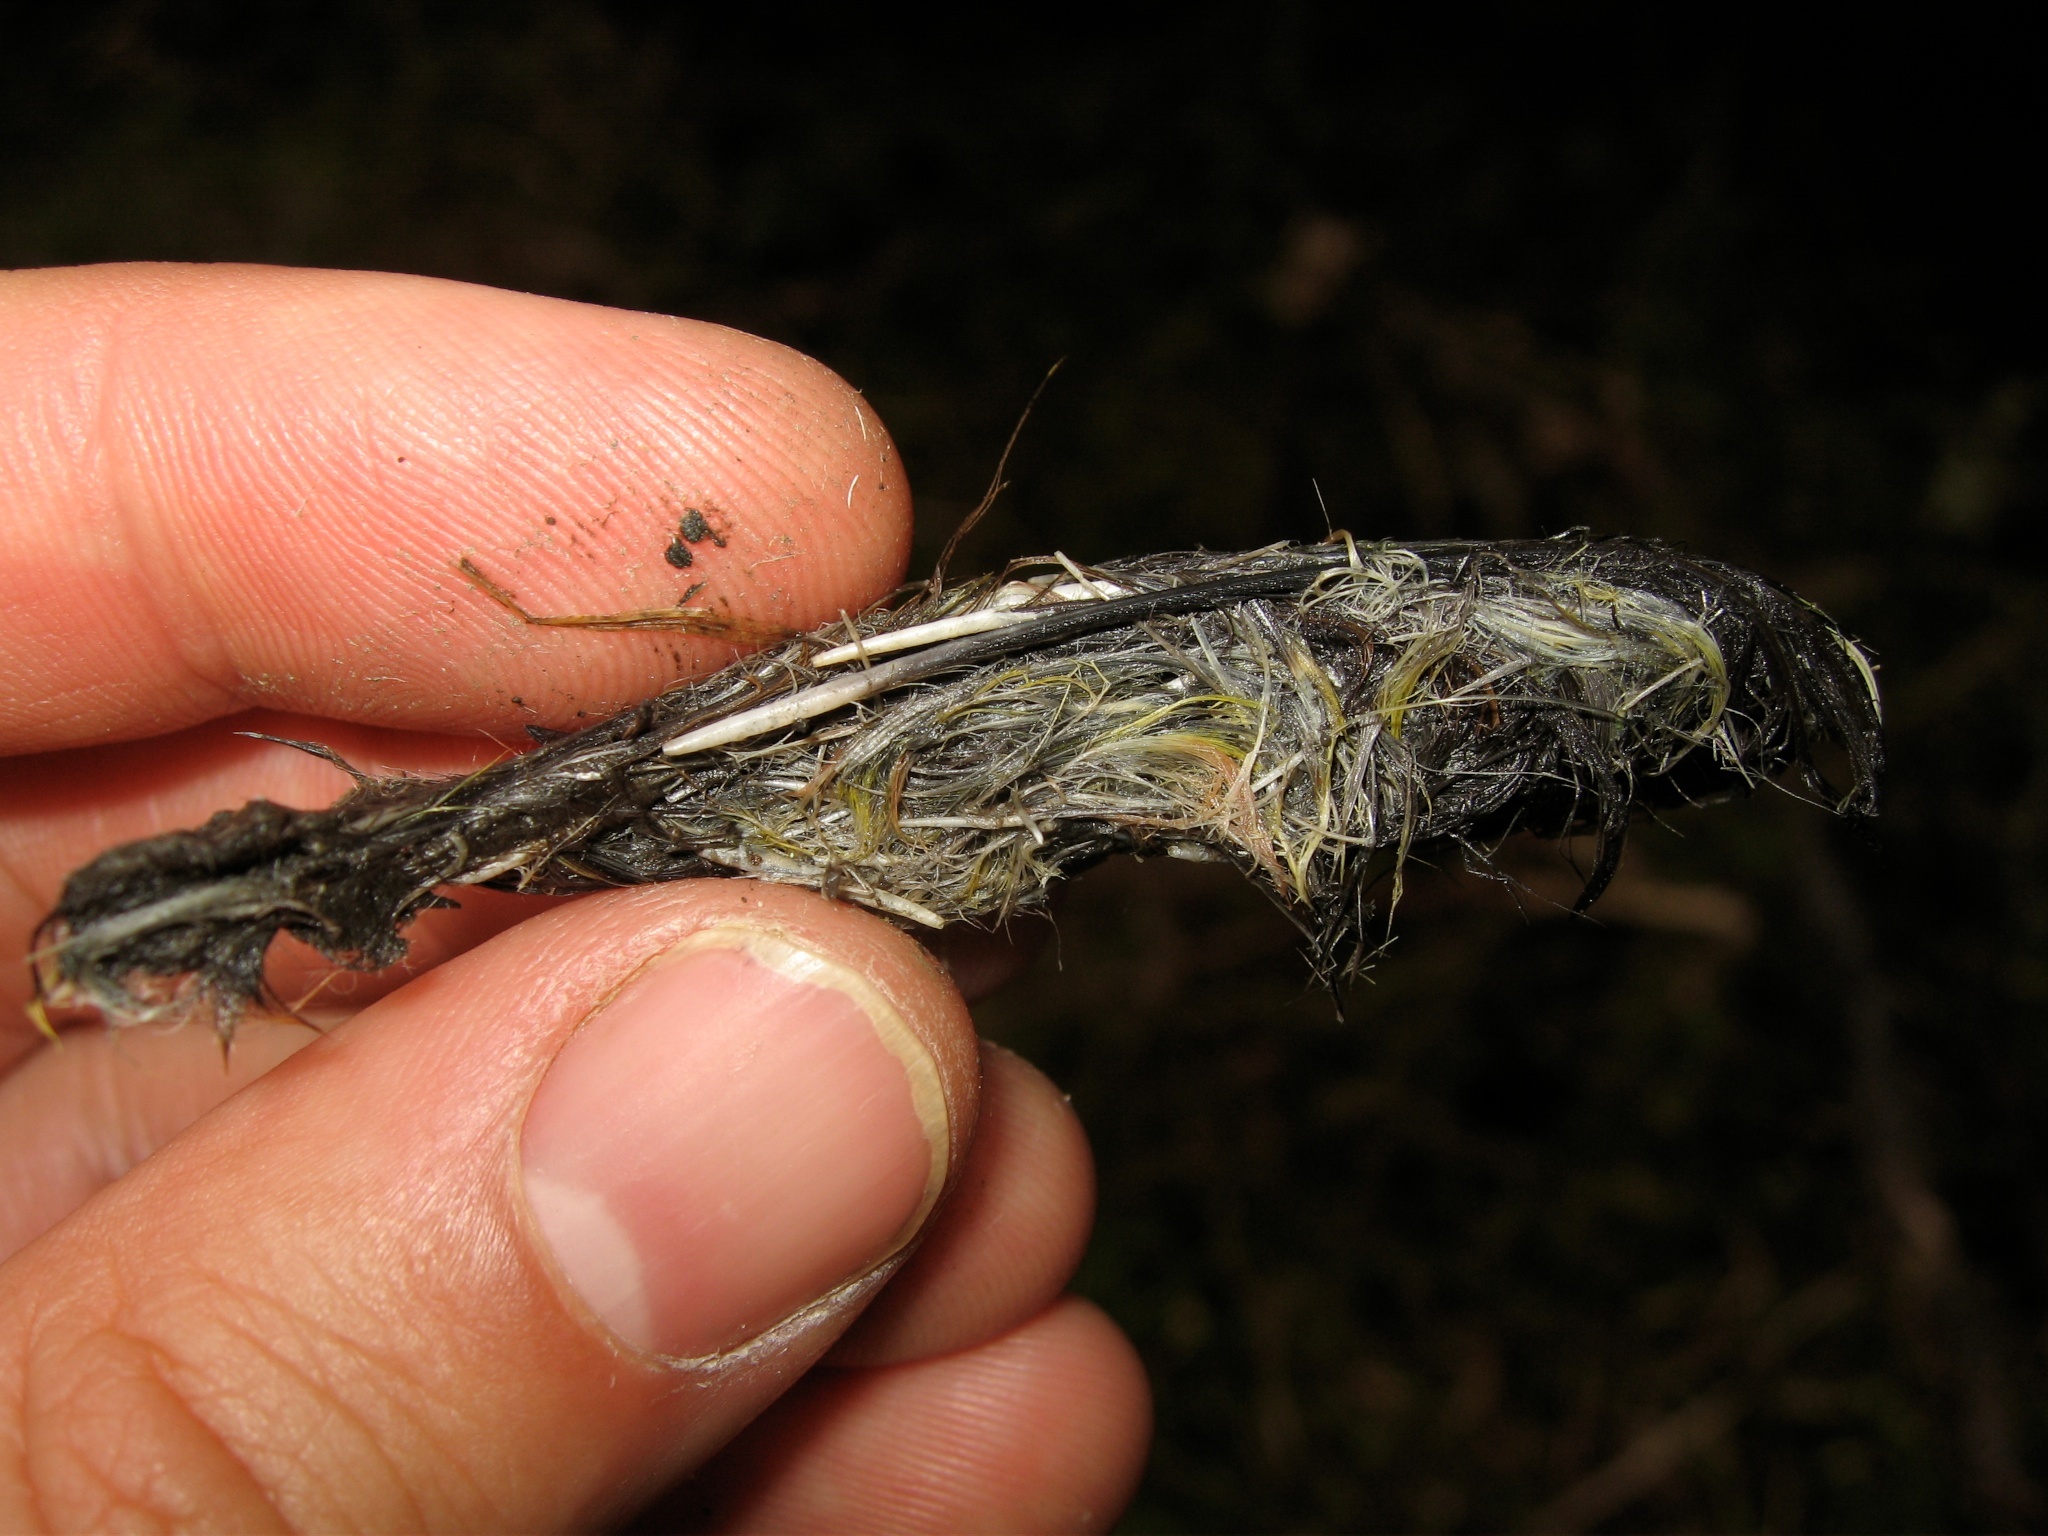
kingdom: Animalia
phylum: Chordata
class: Mammalia
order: Carnivora
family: Felidae
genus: Felis
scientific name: Felis catus
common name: Domestic cat
